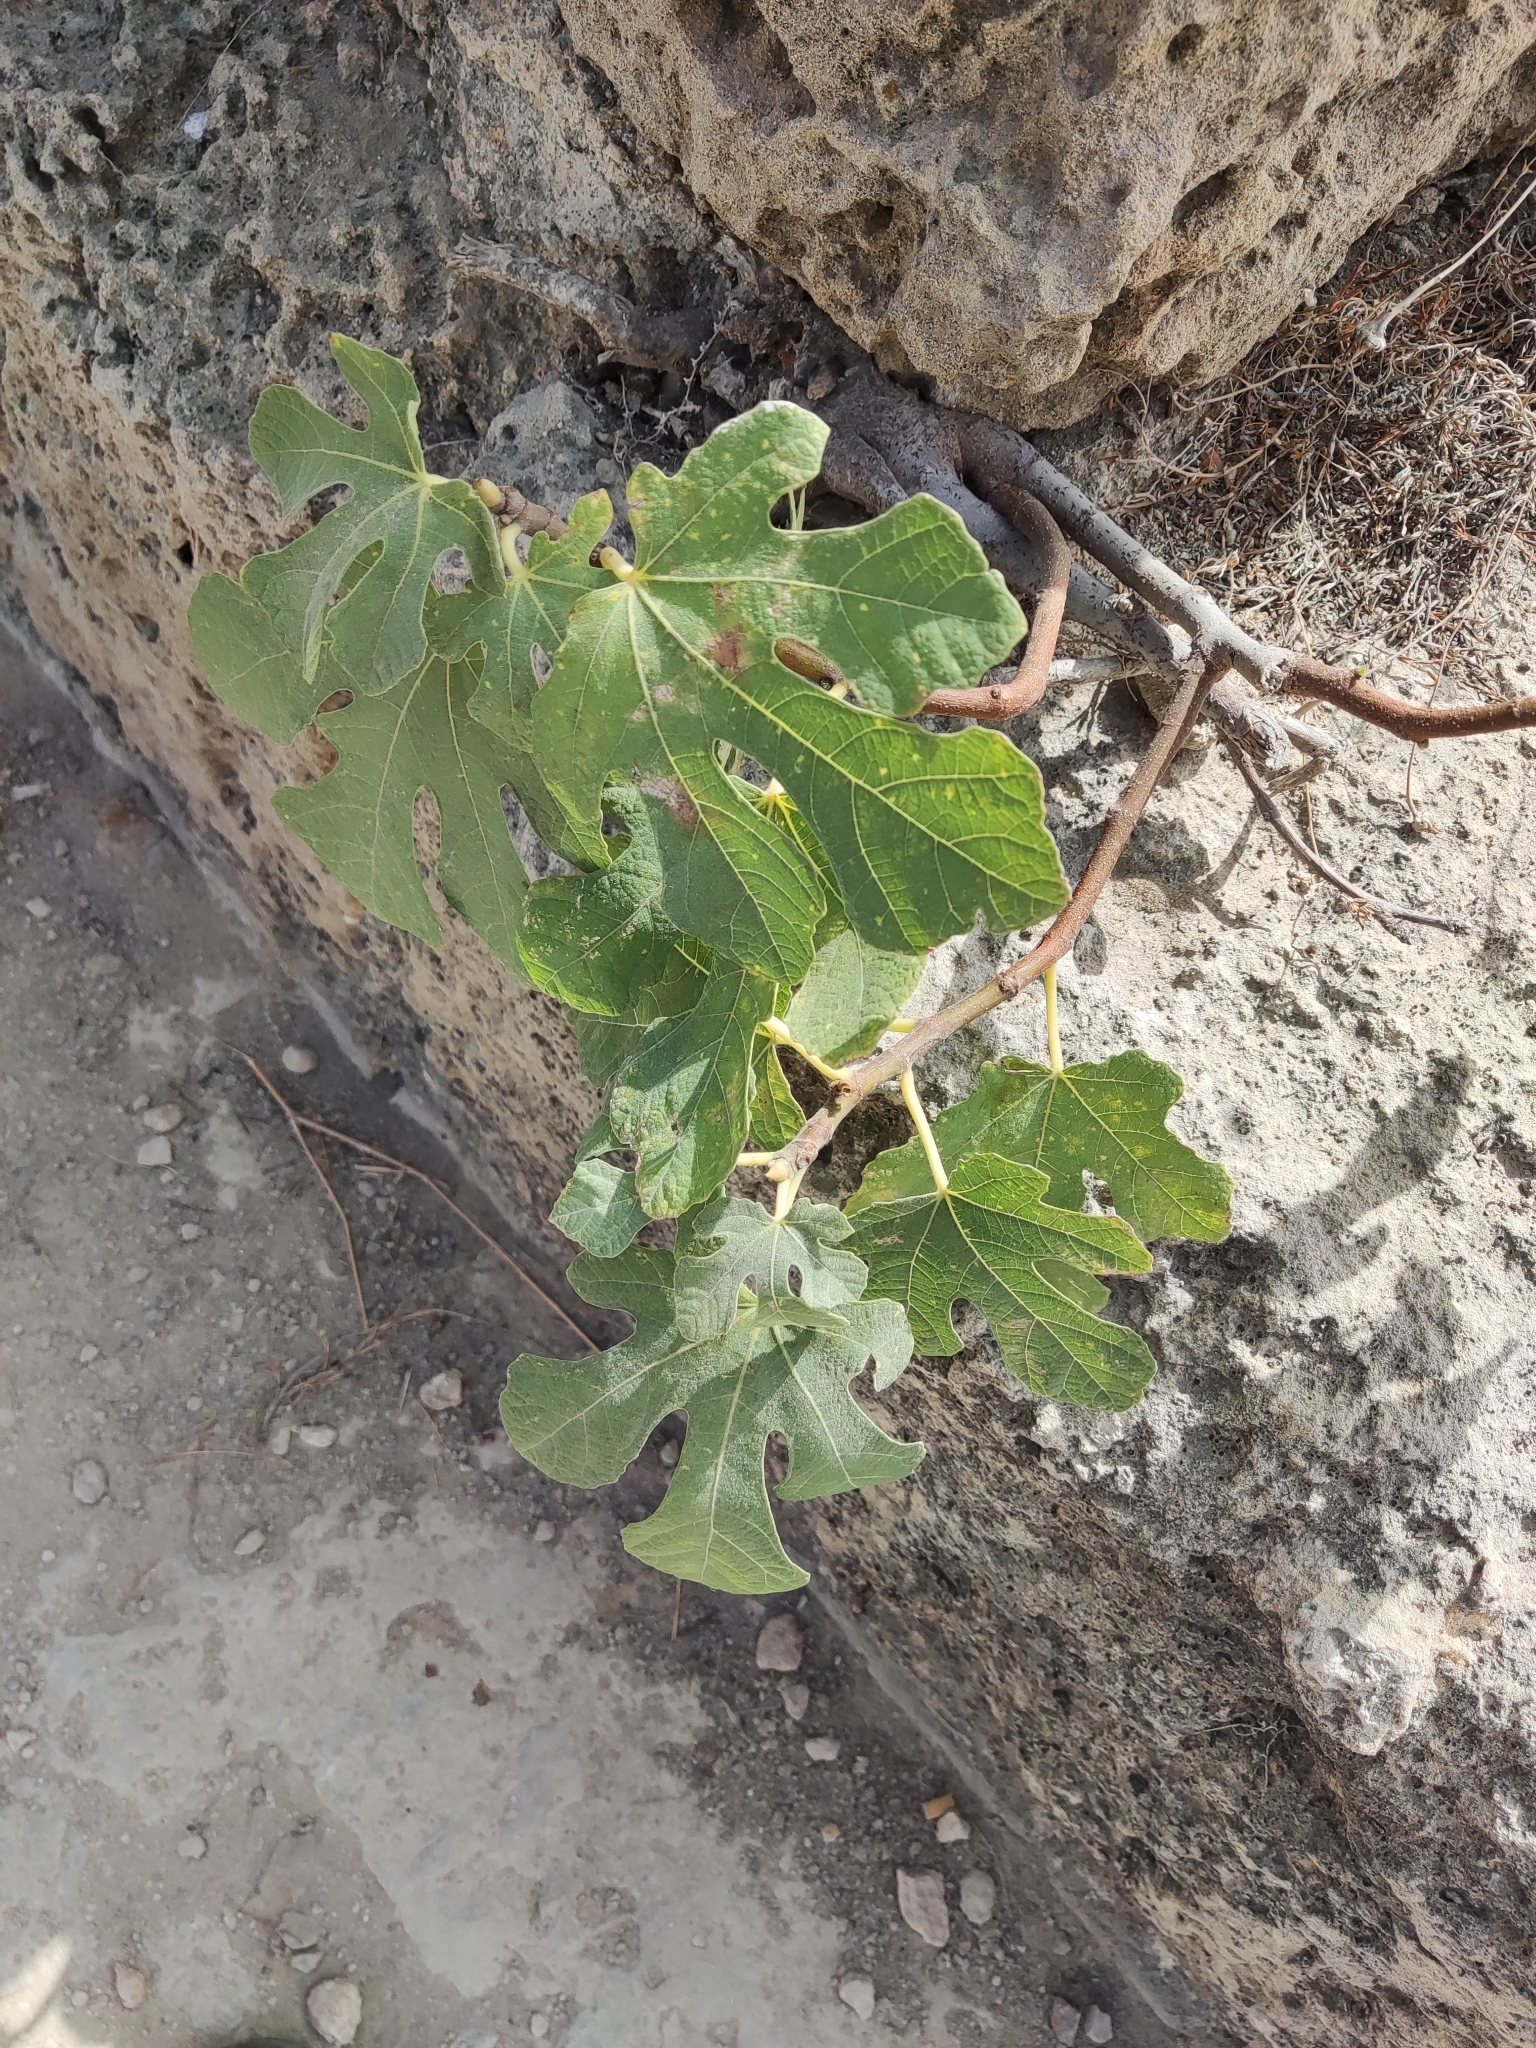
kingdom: Plantae
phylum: Tracheophyta
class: Magnoliopsida
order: Rosales
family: Moraceae
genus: Ficus
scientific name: Ficus carica
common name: Fig
